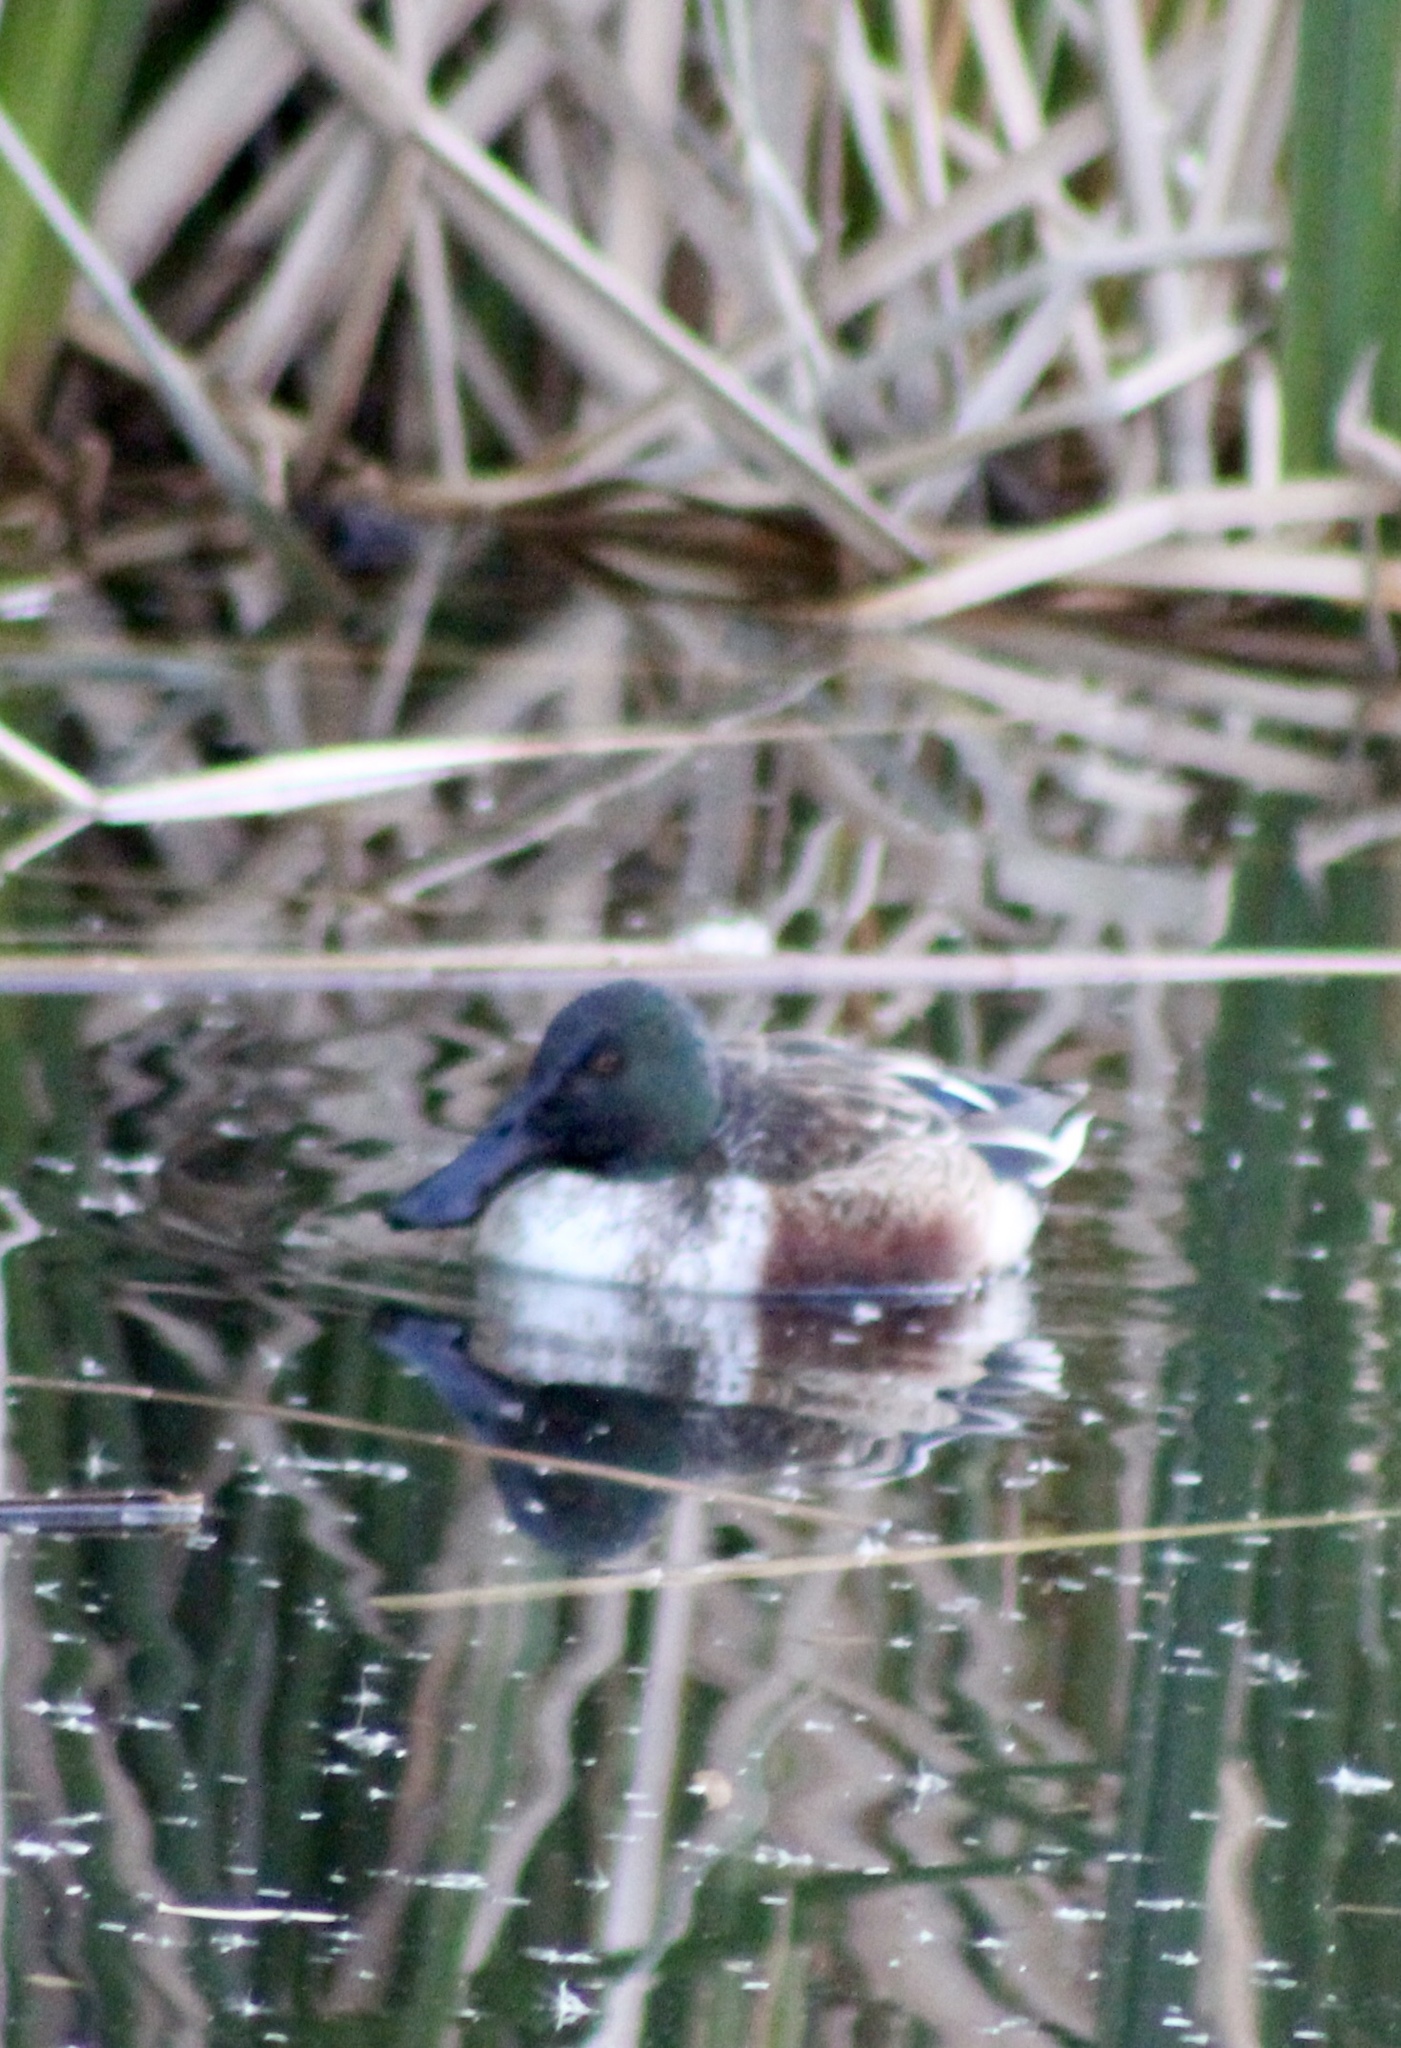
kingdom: Animalia
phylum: Chordata
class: Aves
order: Anseriformes
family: Anatidae
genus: Spatula
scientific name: Spatula clypeata
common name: Northern shoveler
